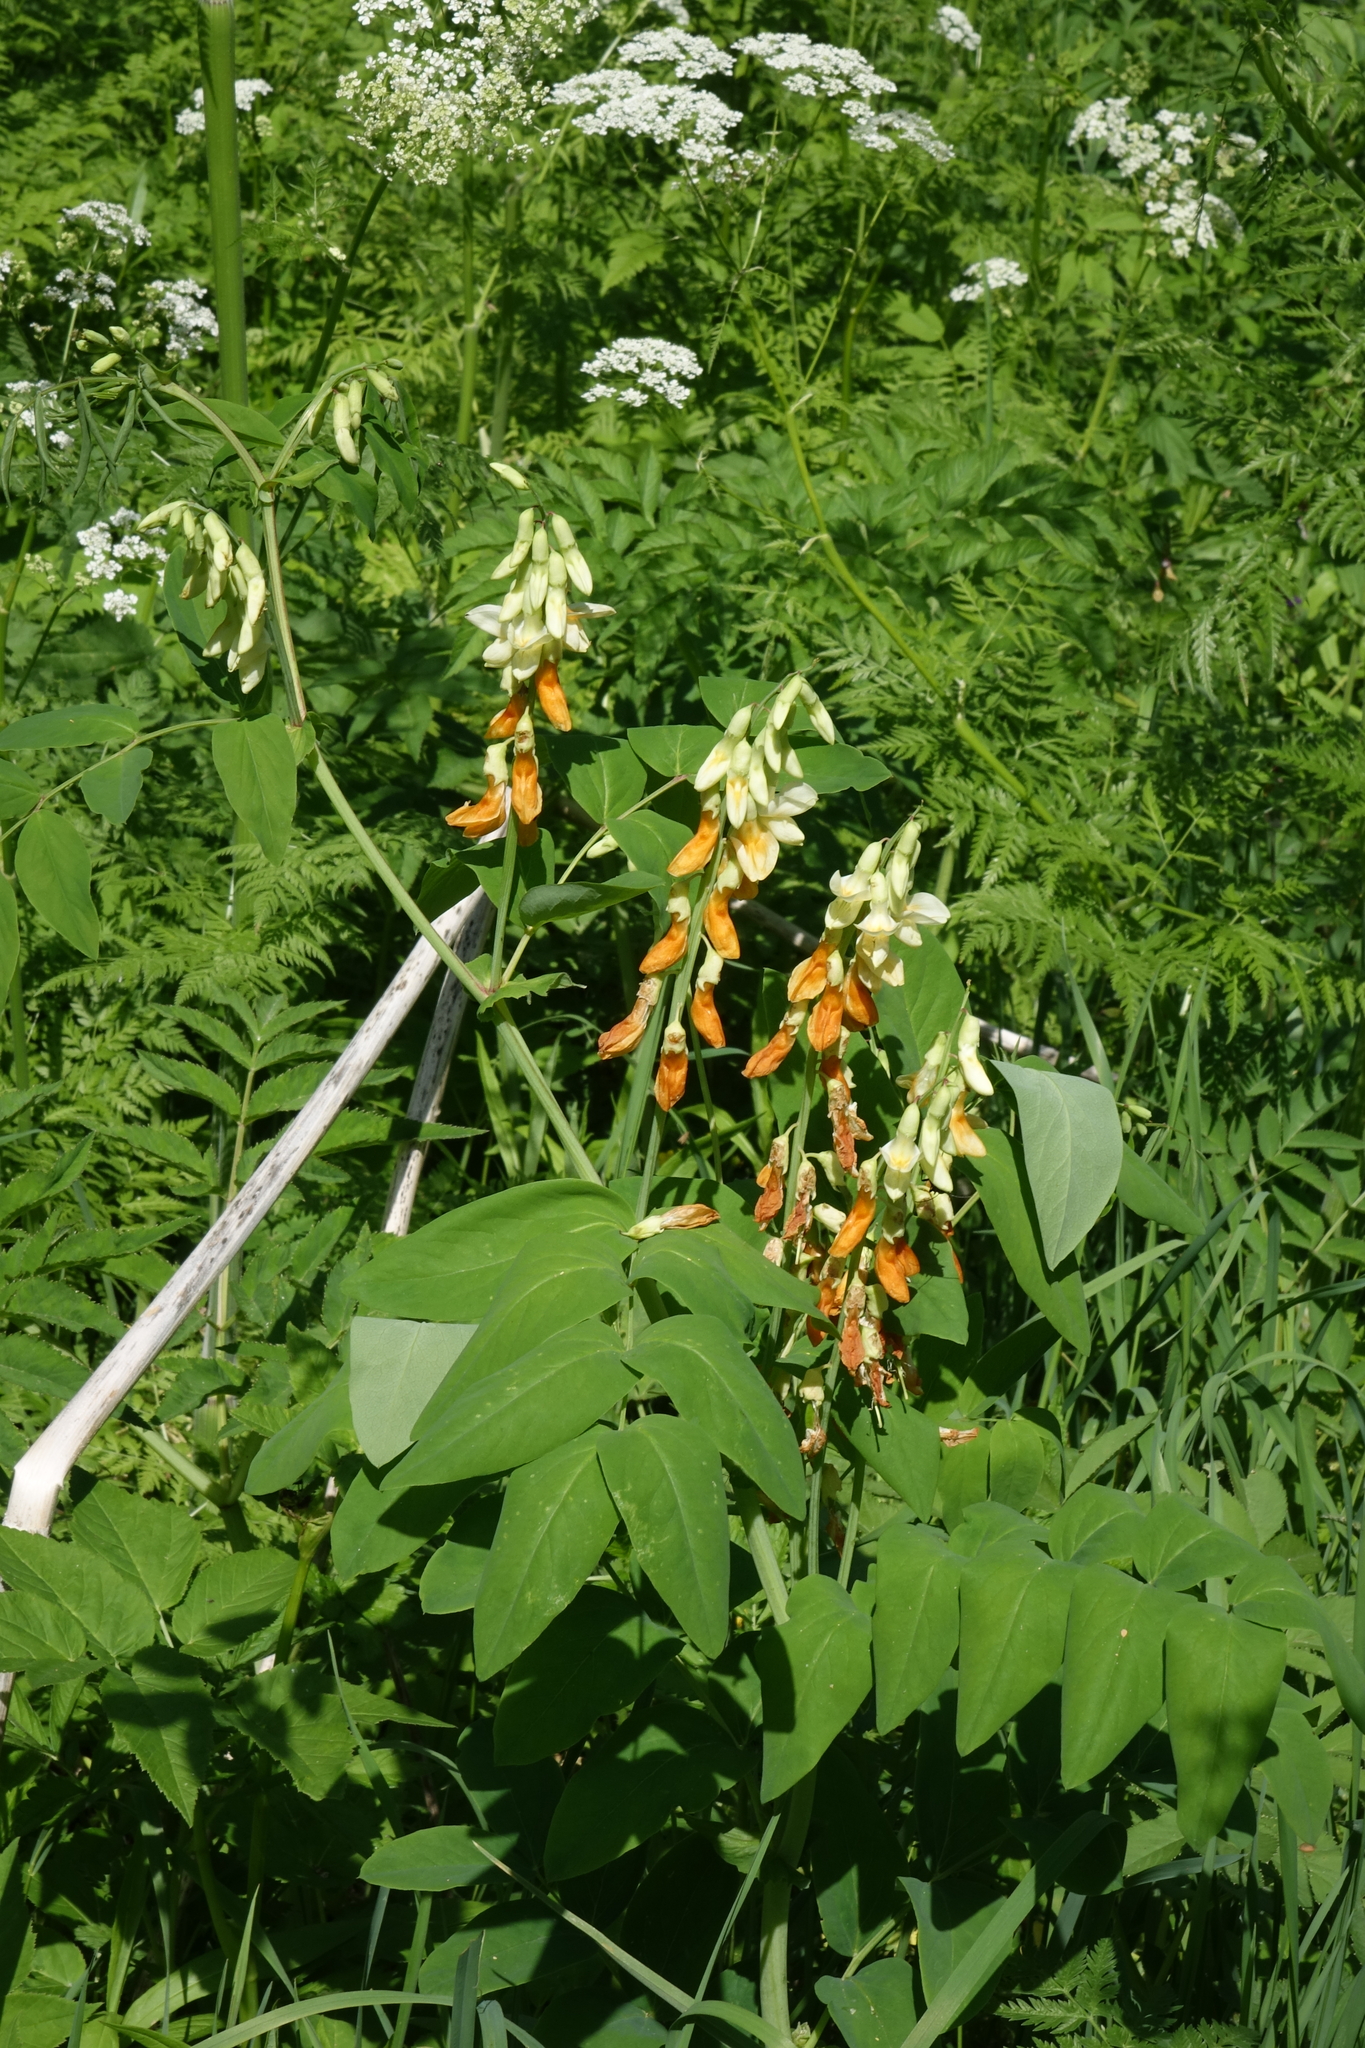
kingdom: Plantae
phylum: Tracheophyta
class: Magnoliopsida
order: Fabales
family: Fabaceae
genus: Lathyrus
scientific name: Lathyrus gmelinii
